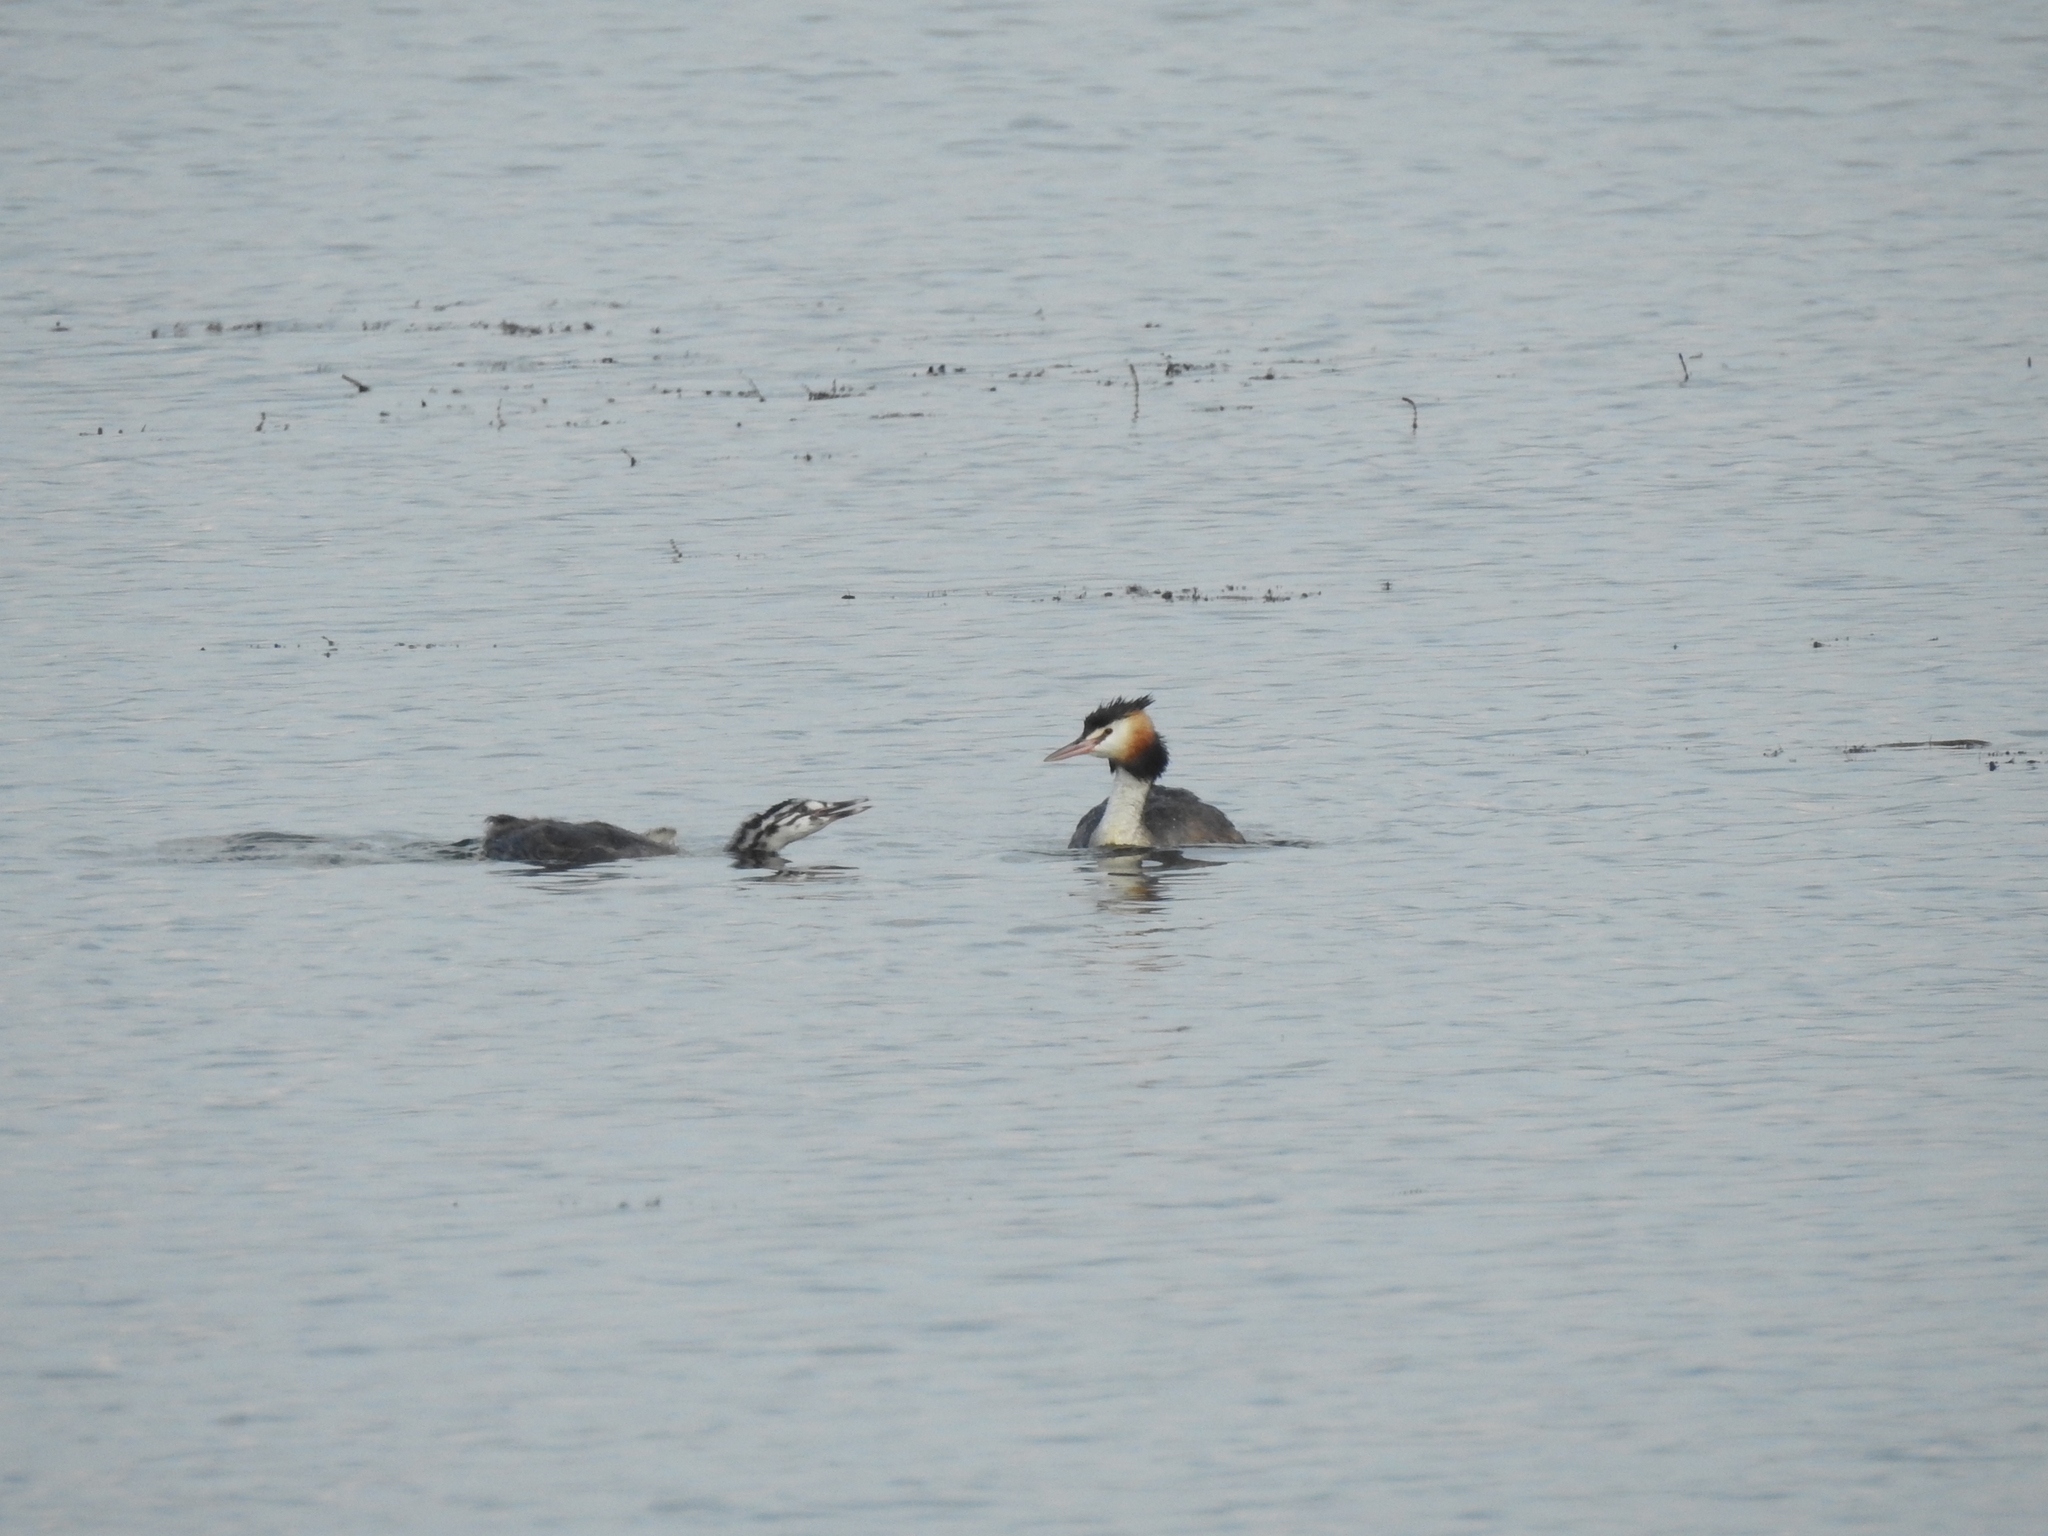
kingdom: Animalia
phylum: Chordata
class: Aves
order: Podicipediformes
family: Podicipedidae
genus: Podiceps
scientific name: Podiceps cristatus
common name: Great crested grebe
